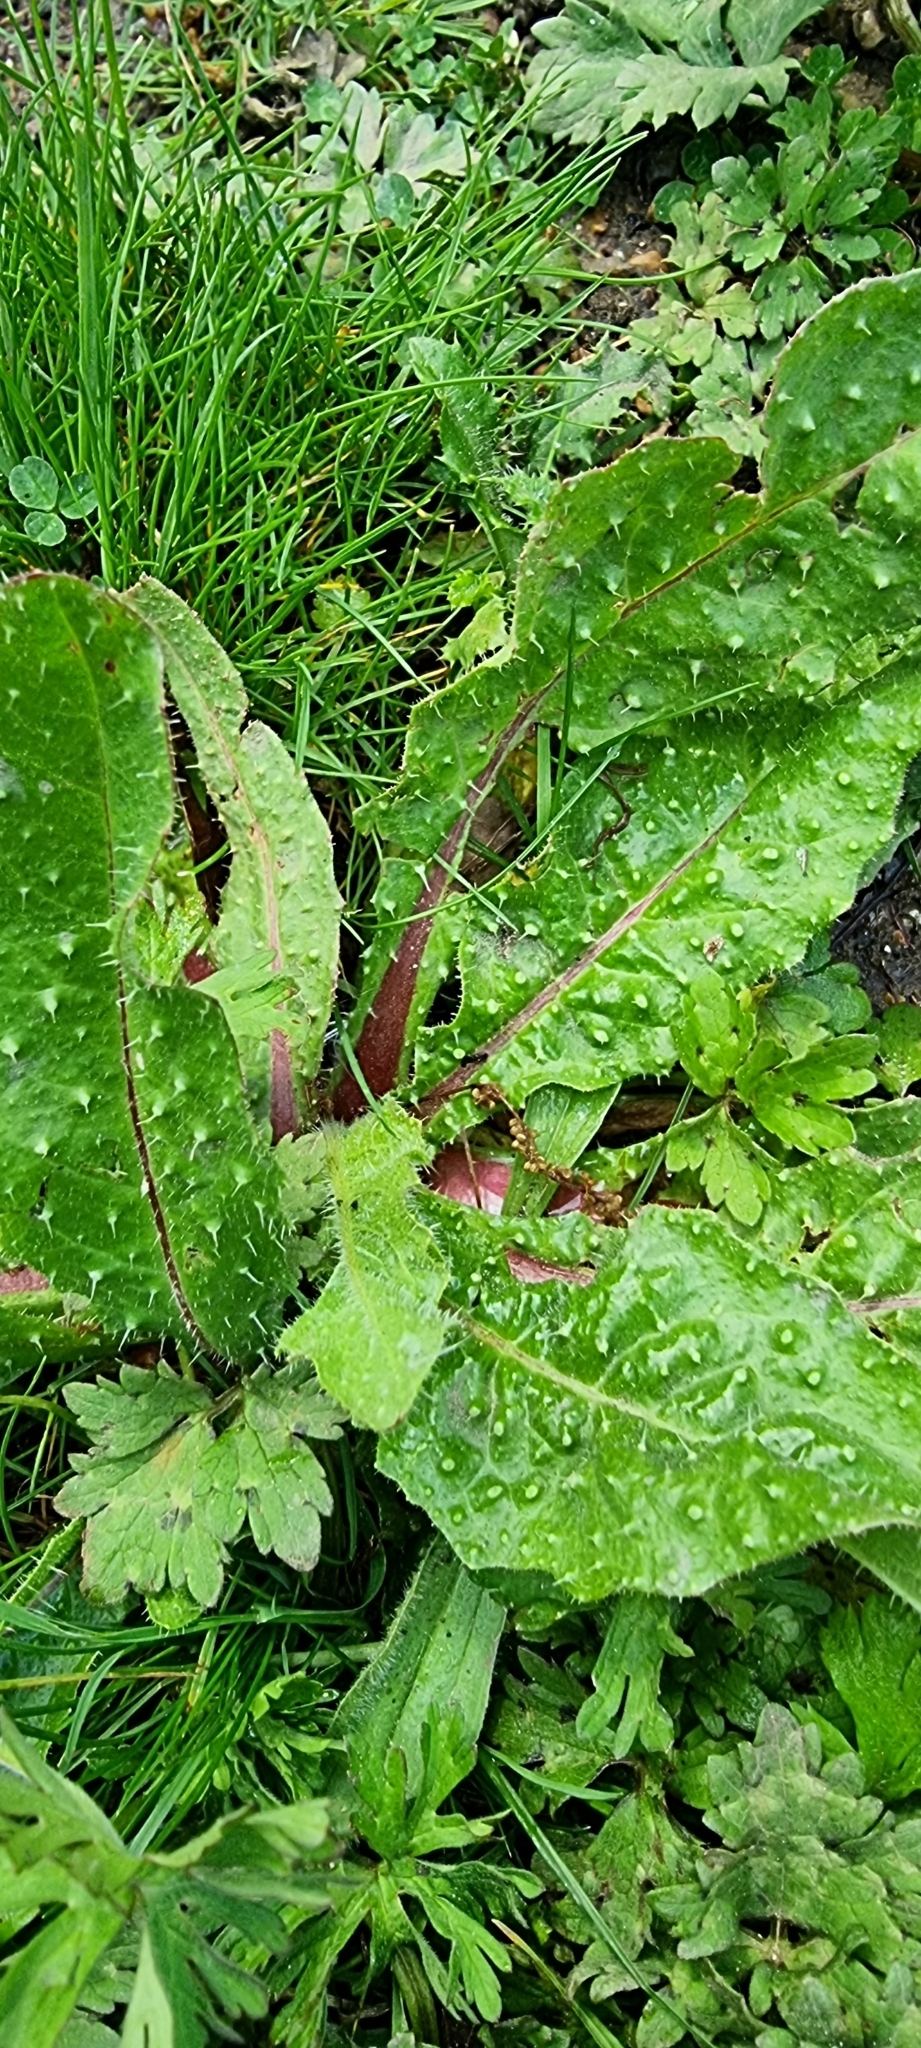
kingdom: Plantae
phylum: Tracheophyta
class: Magnoliopsida
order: Asterales
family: Asteraceae
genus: Helminthotheca
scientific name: Helminthotheca echioides
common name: Ox-tongue
